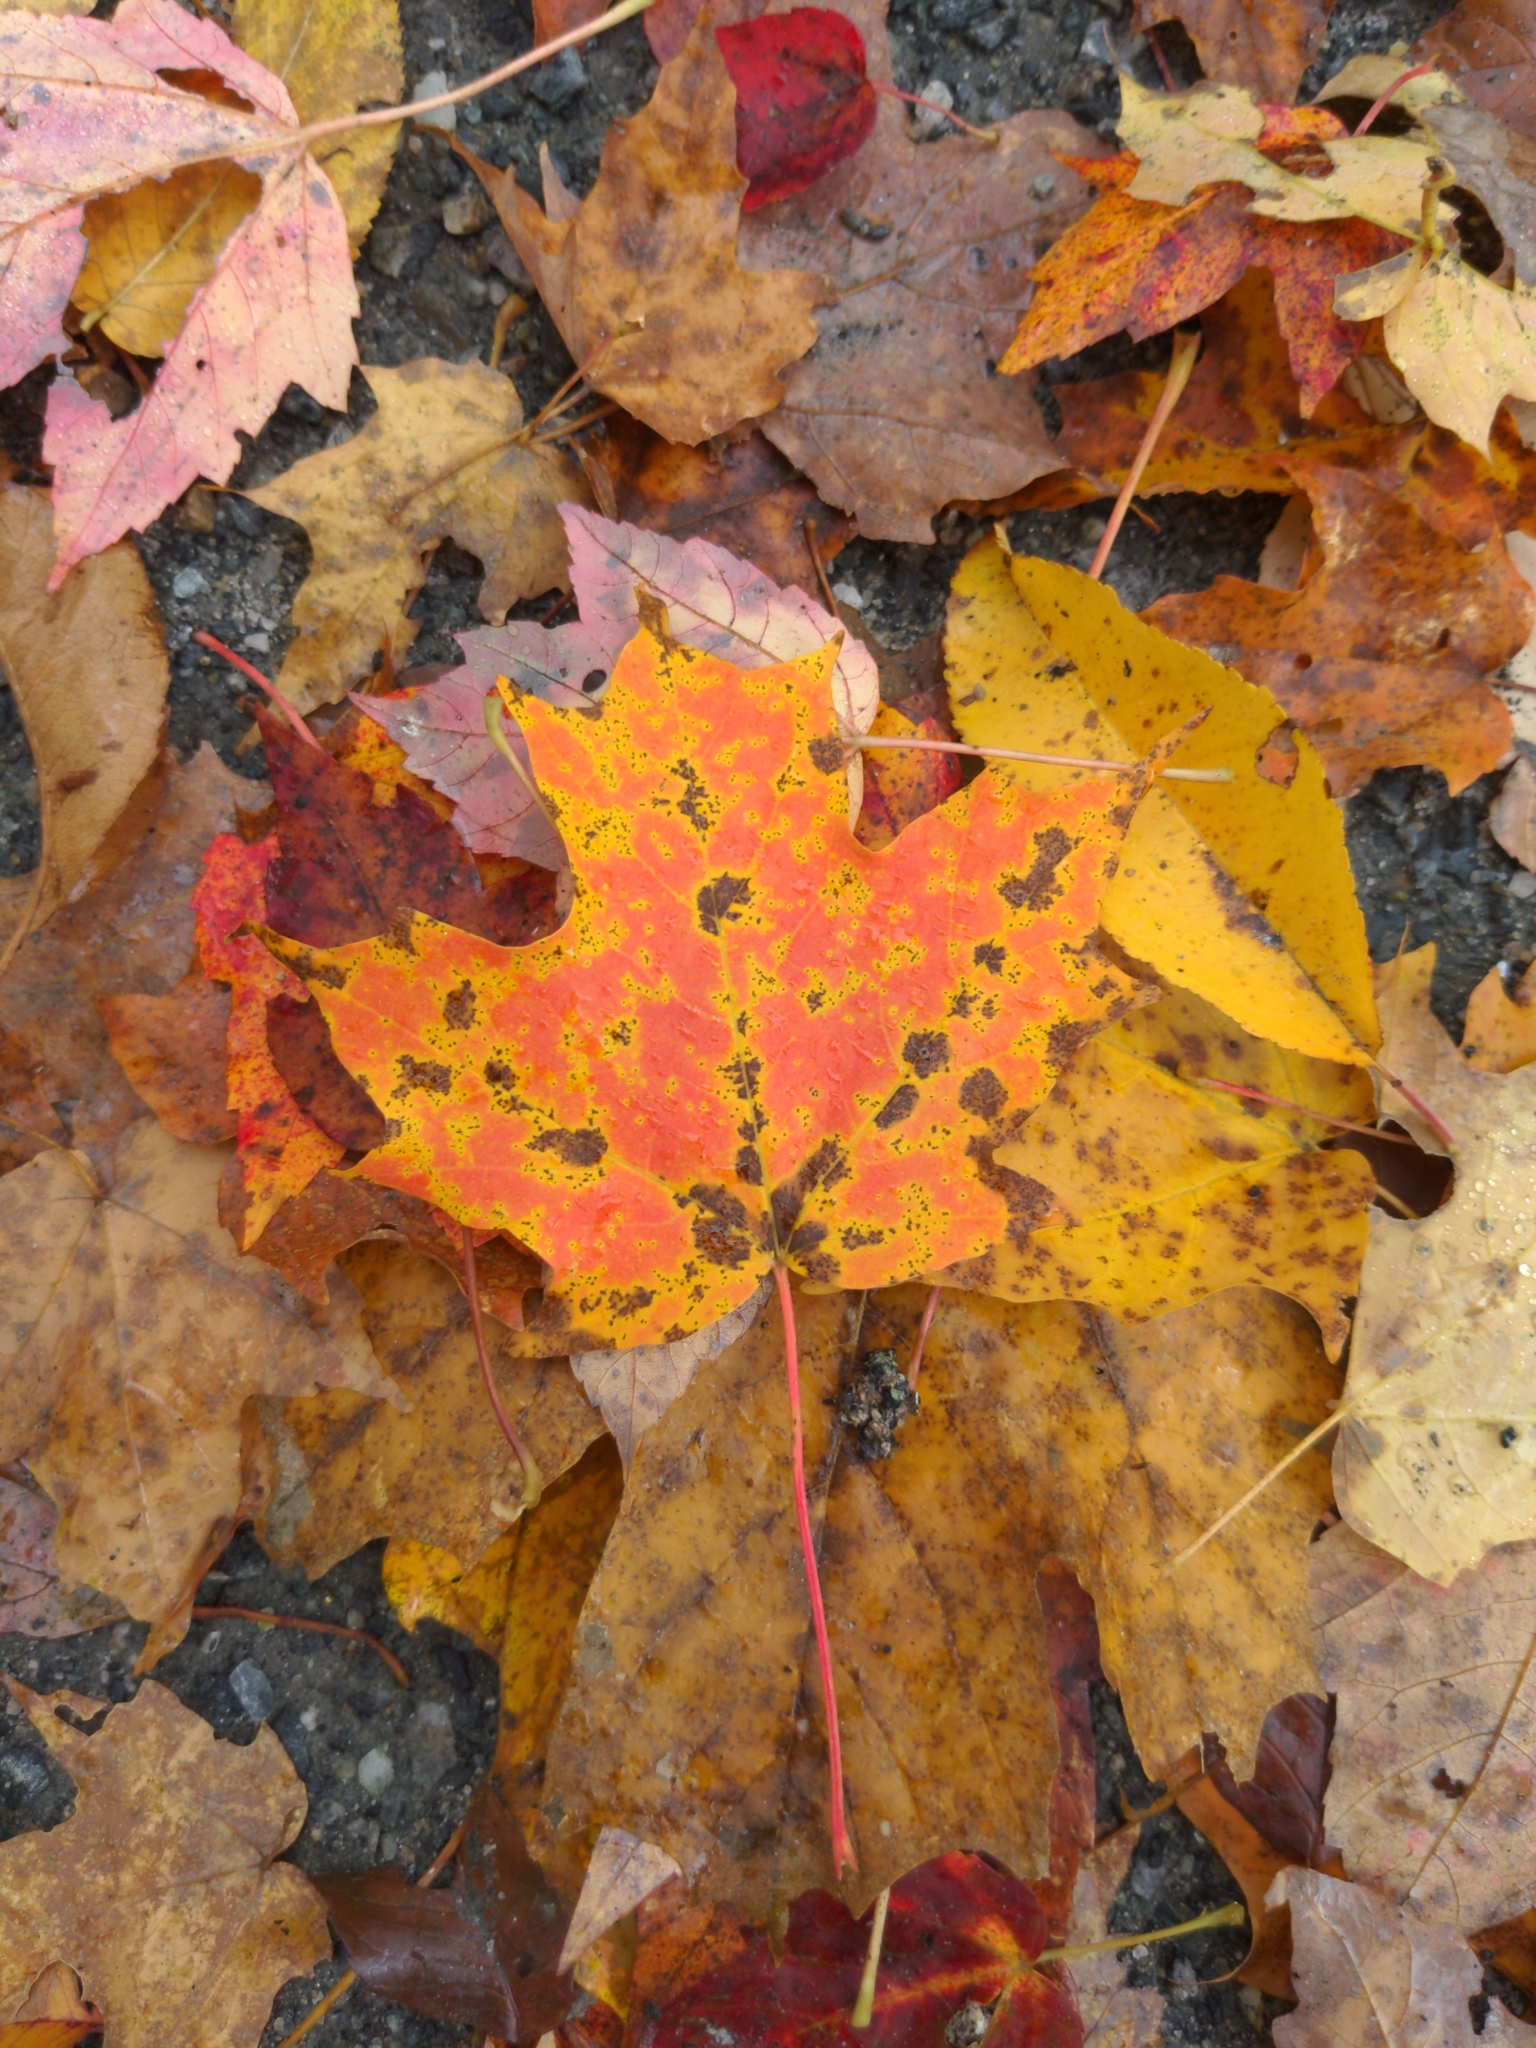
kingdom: Plantae
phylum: Tracheophyta
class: Magnoliopsida
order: Sapindales
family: Sapindaceae
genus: Acer
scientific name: Acer saccharum
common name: Sugar maple
